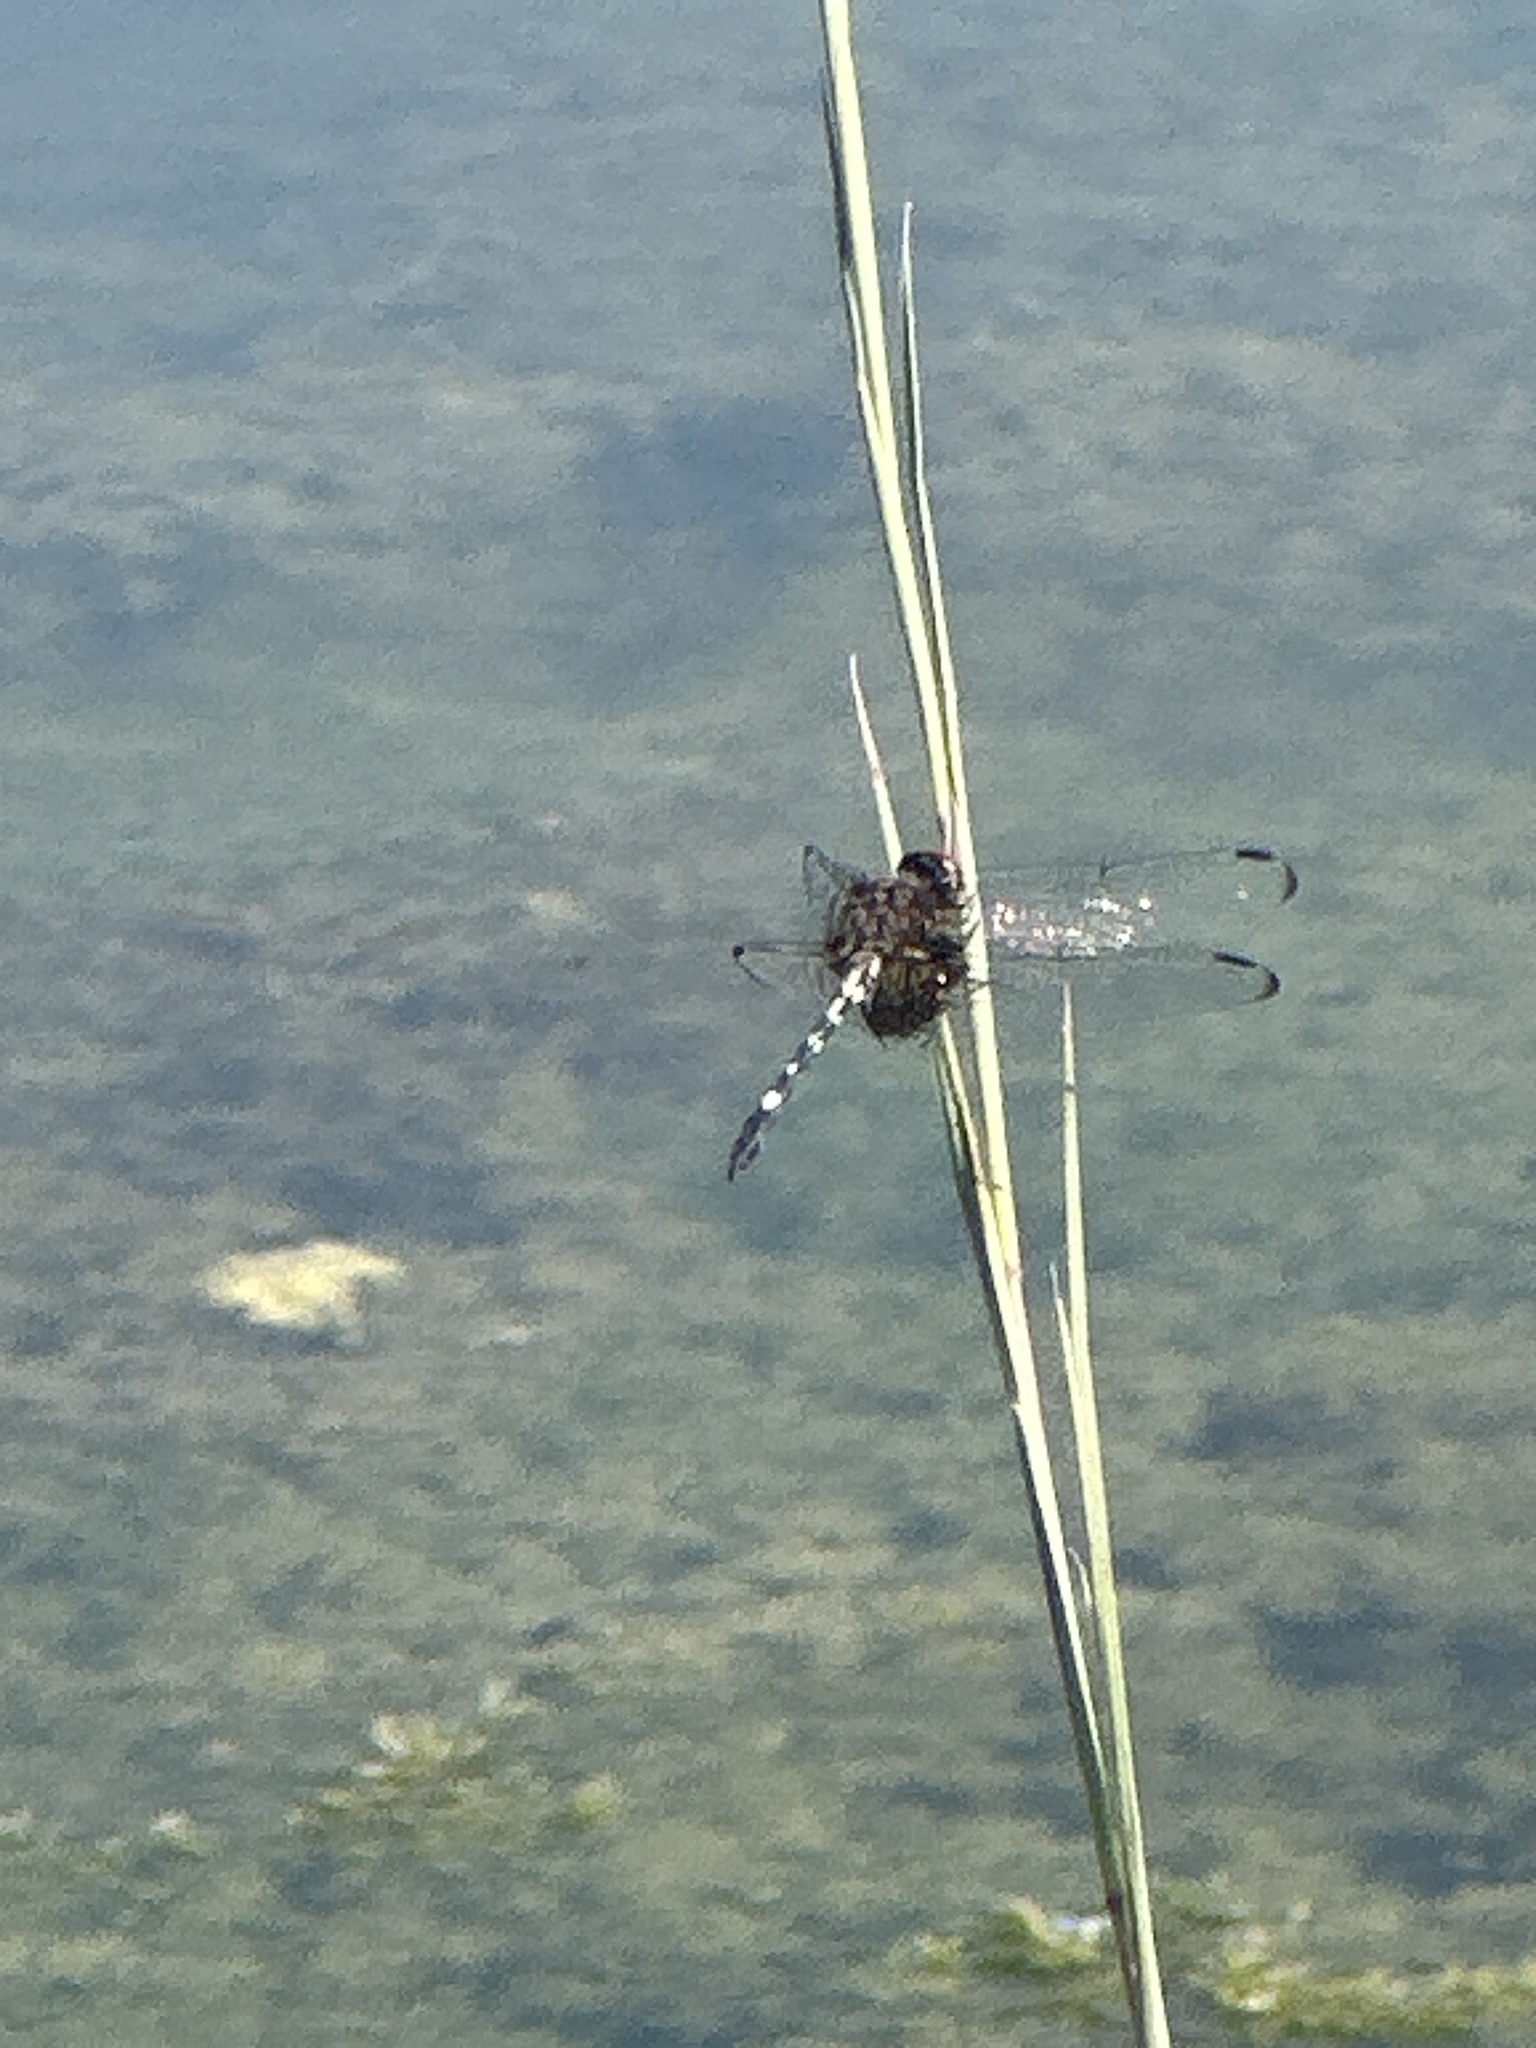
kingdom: Animalia
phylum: Arthropoda
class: Insecta
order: Odonata
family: Libellulidae
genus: Dythemis
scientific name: Dythemis fugax
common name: Checkered setwing
